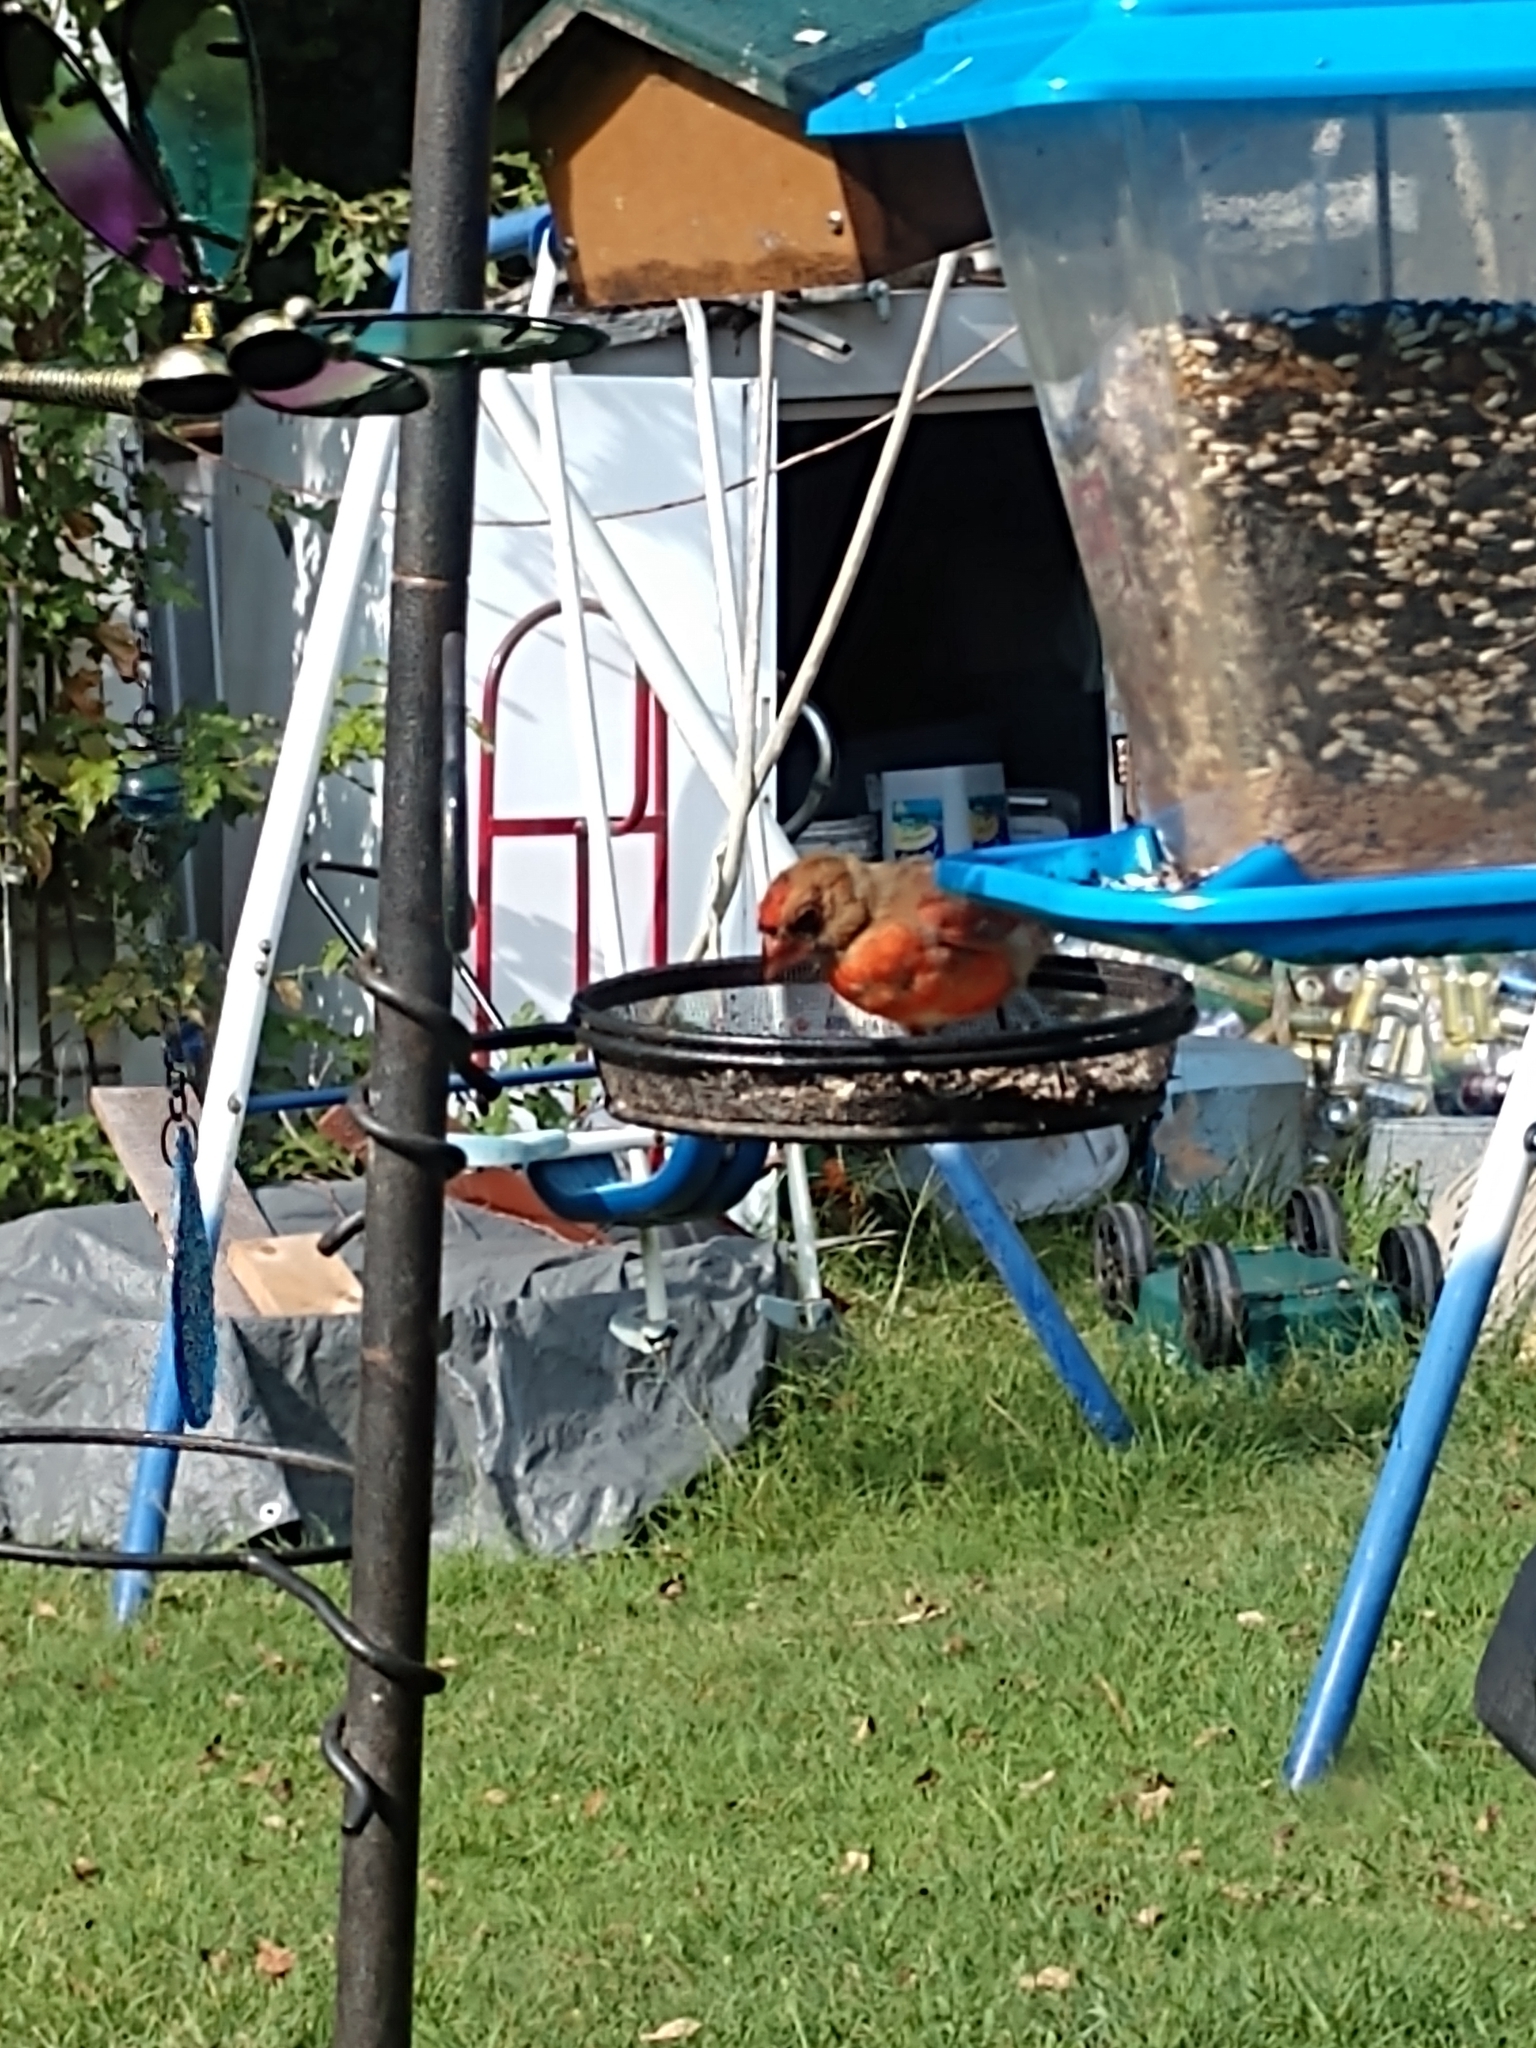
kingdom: Animalia
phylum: Chordata
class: Aves
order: Passeriformes
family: Cardinalidae
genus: Cardinalis
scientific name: Cardinalis cardinalis
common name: Northern cardinal
